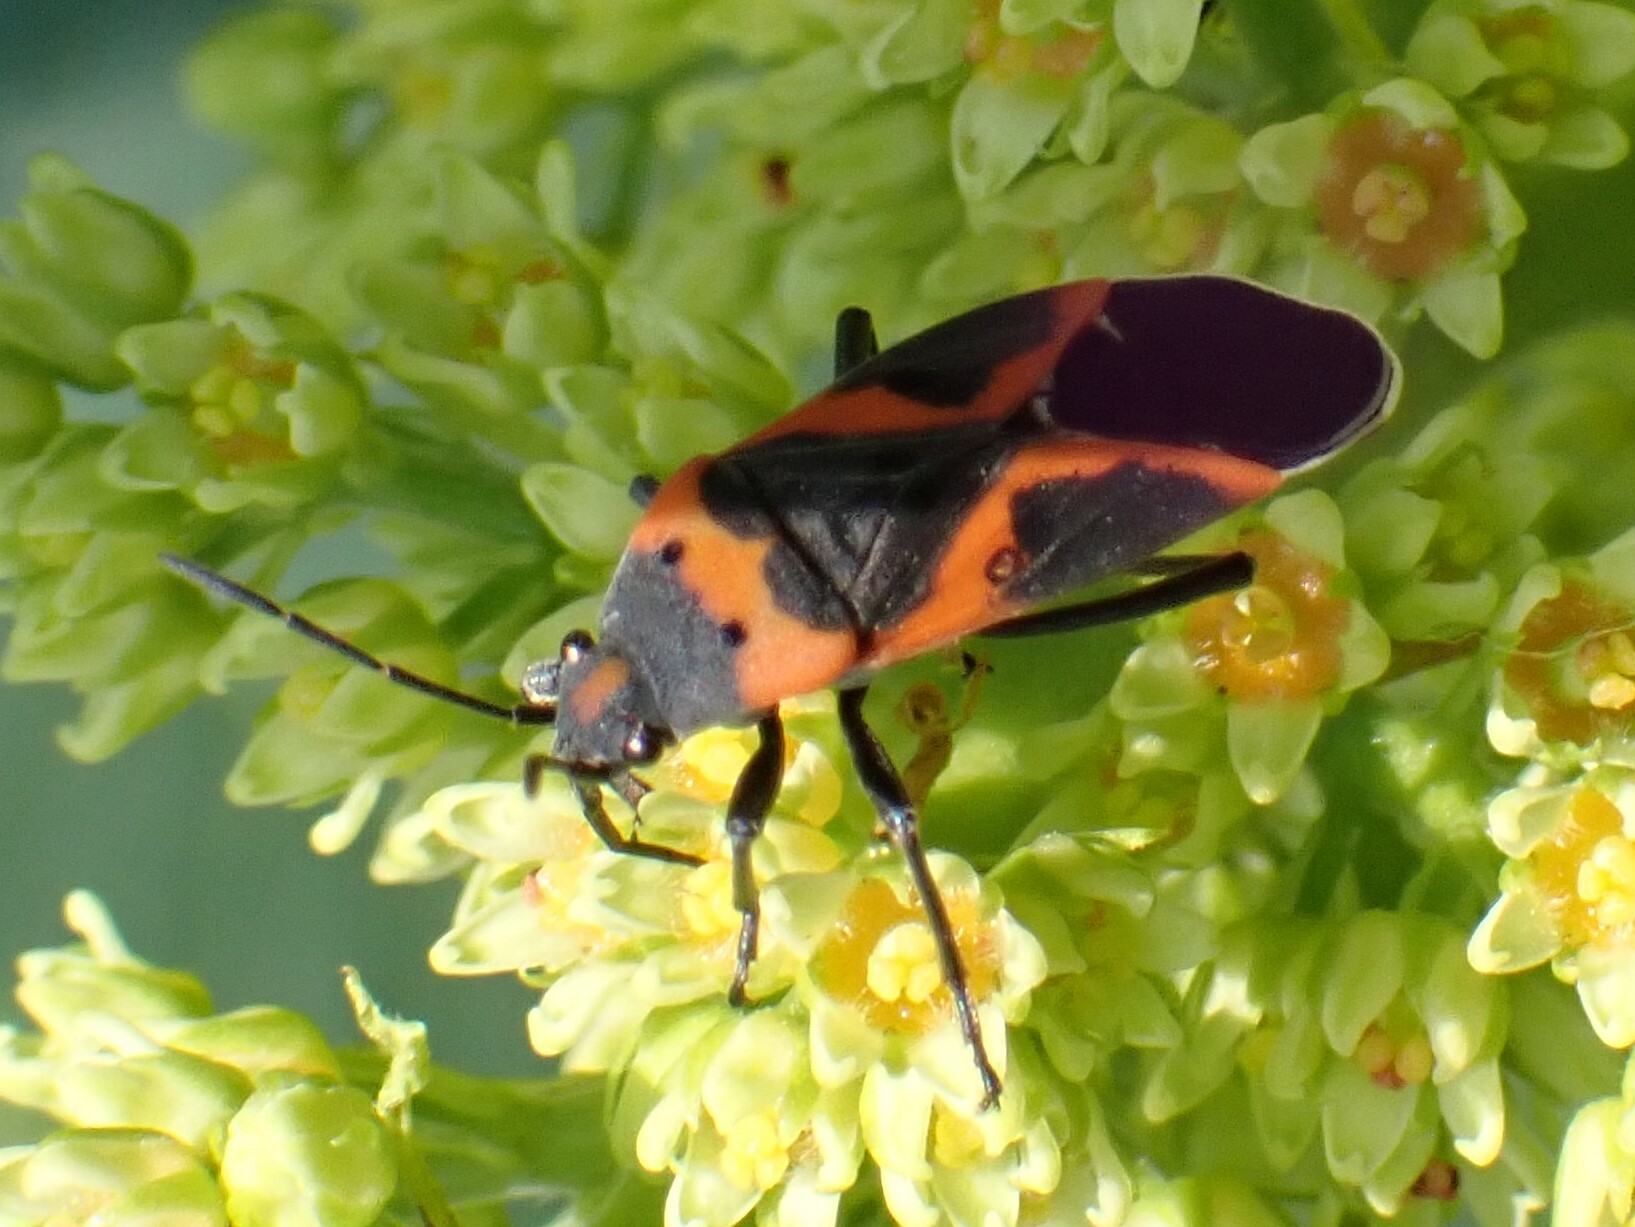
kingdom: Animalia
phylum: Arthropoda
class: Insecta
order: Hemiptera
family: Lygaeidae
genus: Lygaeus
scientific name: Lygaeus kalmii
